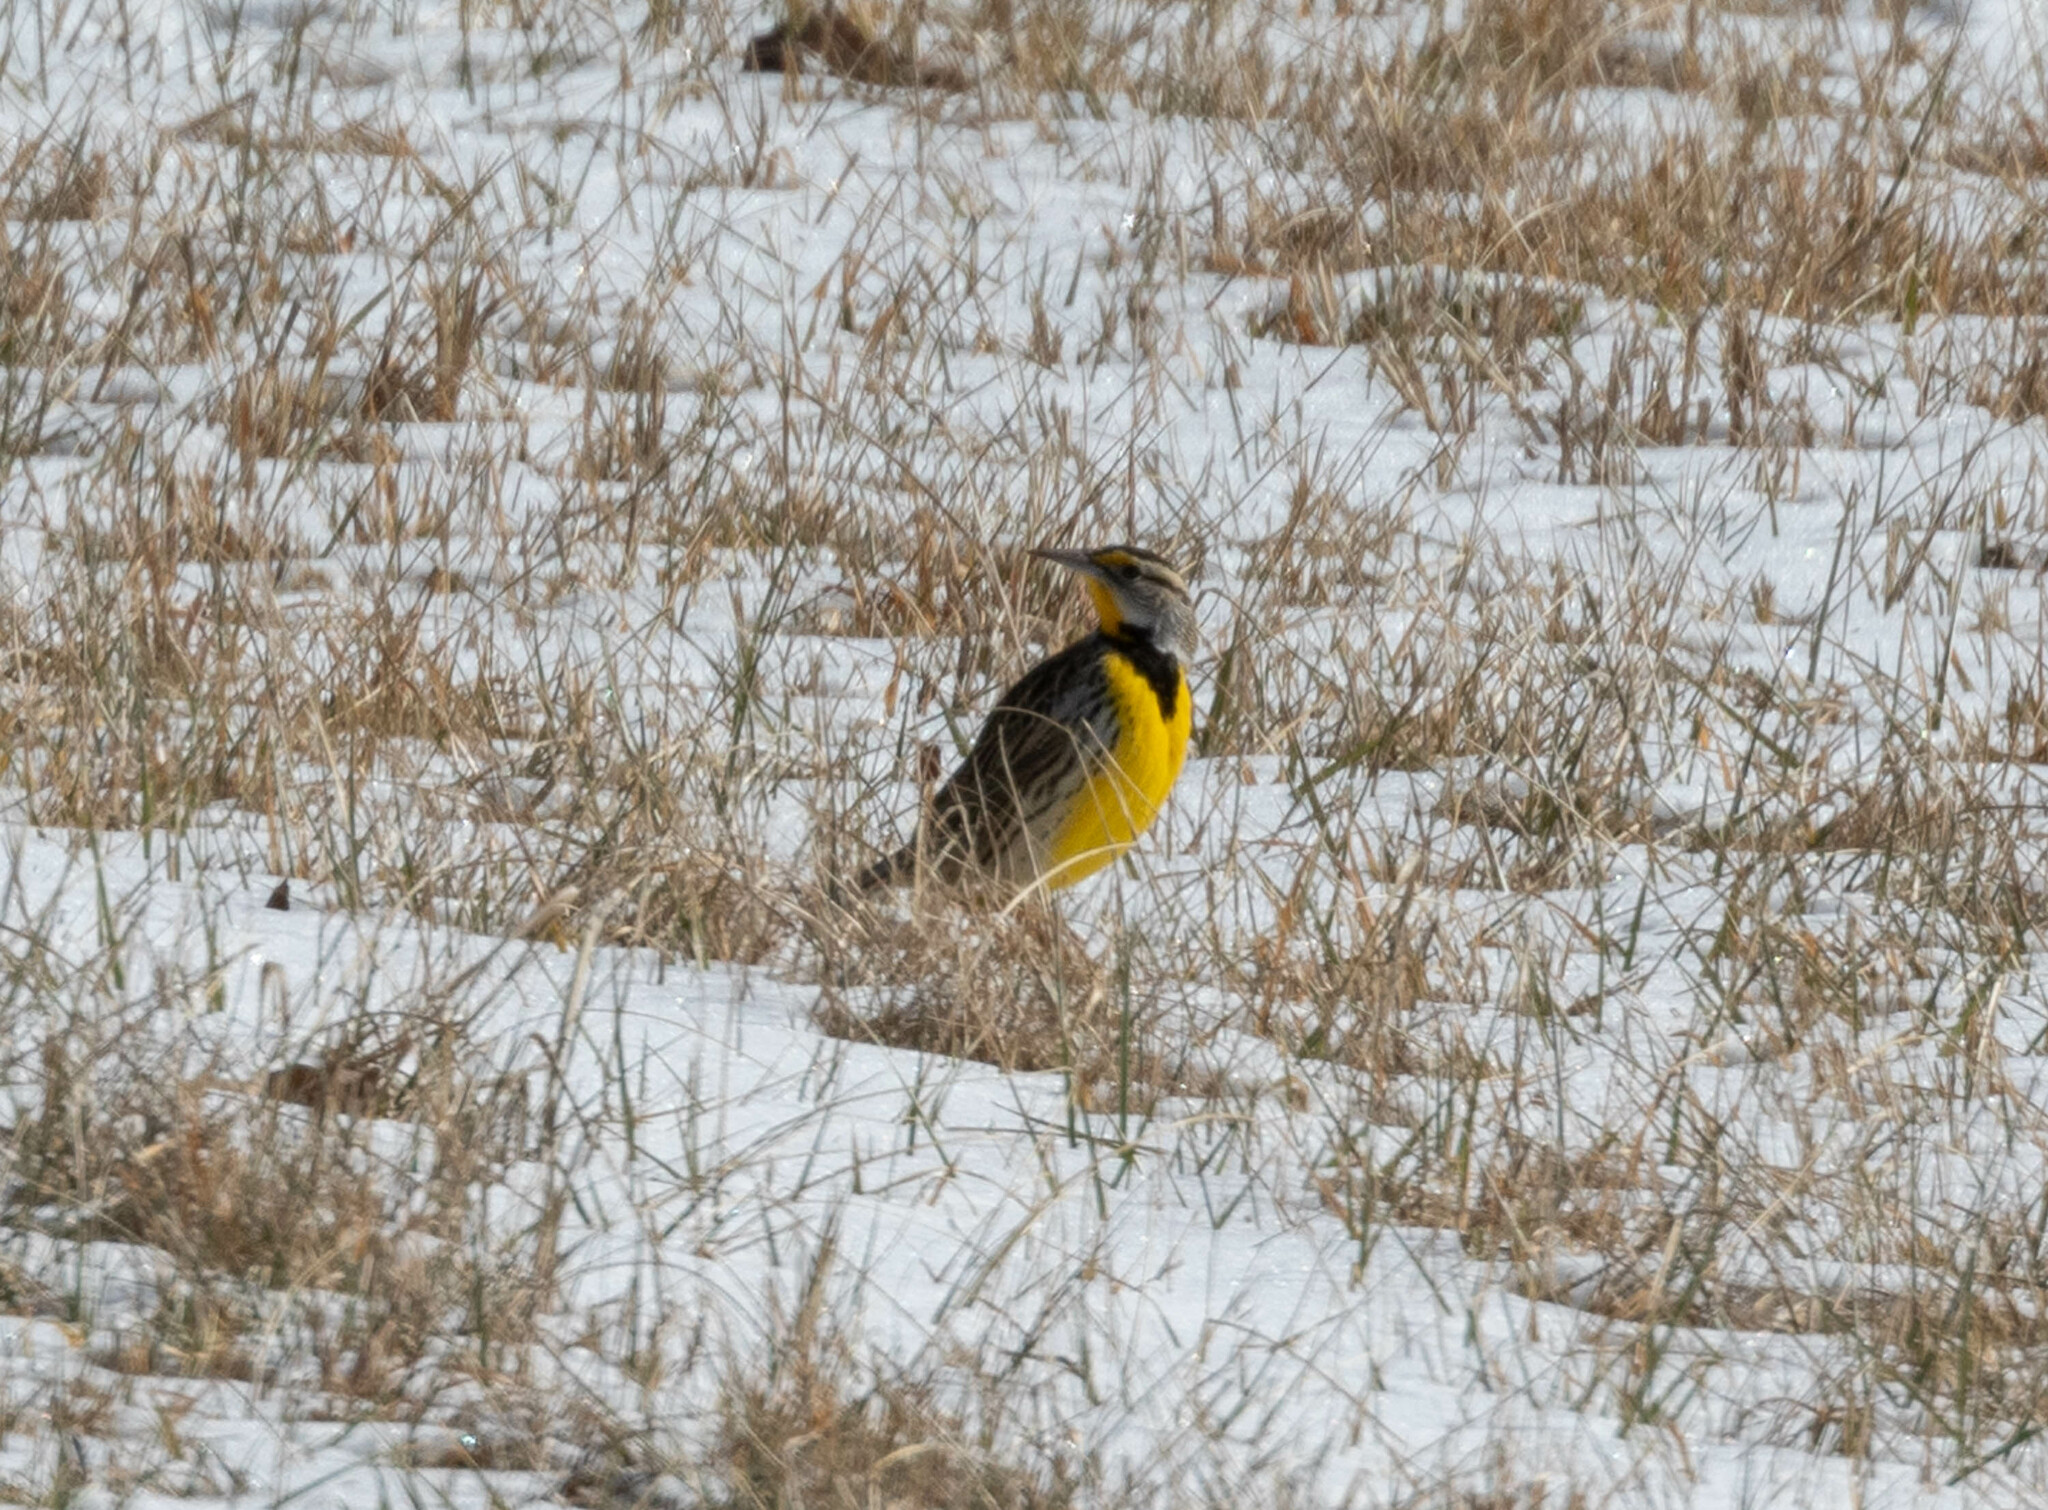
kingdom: Animalia
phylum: Chordata
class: Aves
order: Passeriformes
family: Icteridae
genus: Sturnella
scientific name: Sturnella magna
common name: Eastern meadowlark
